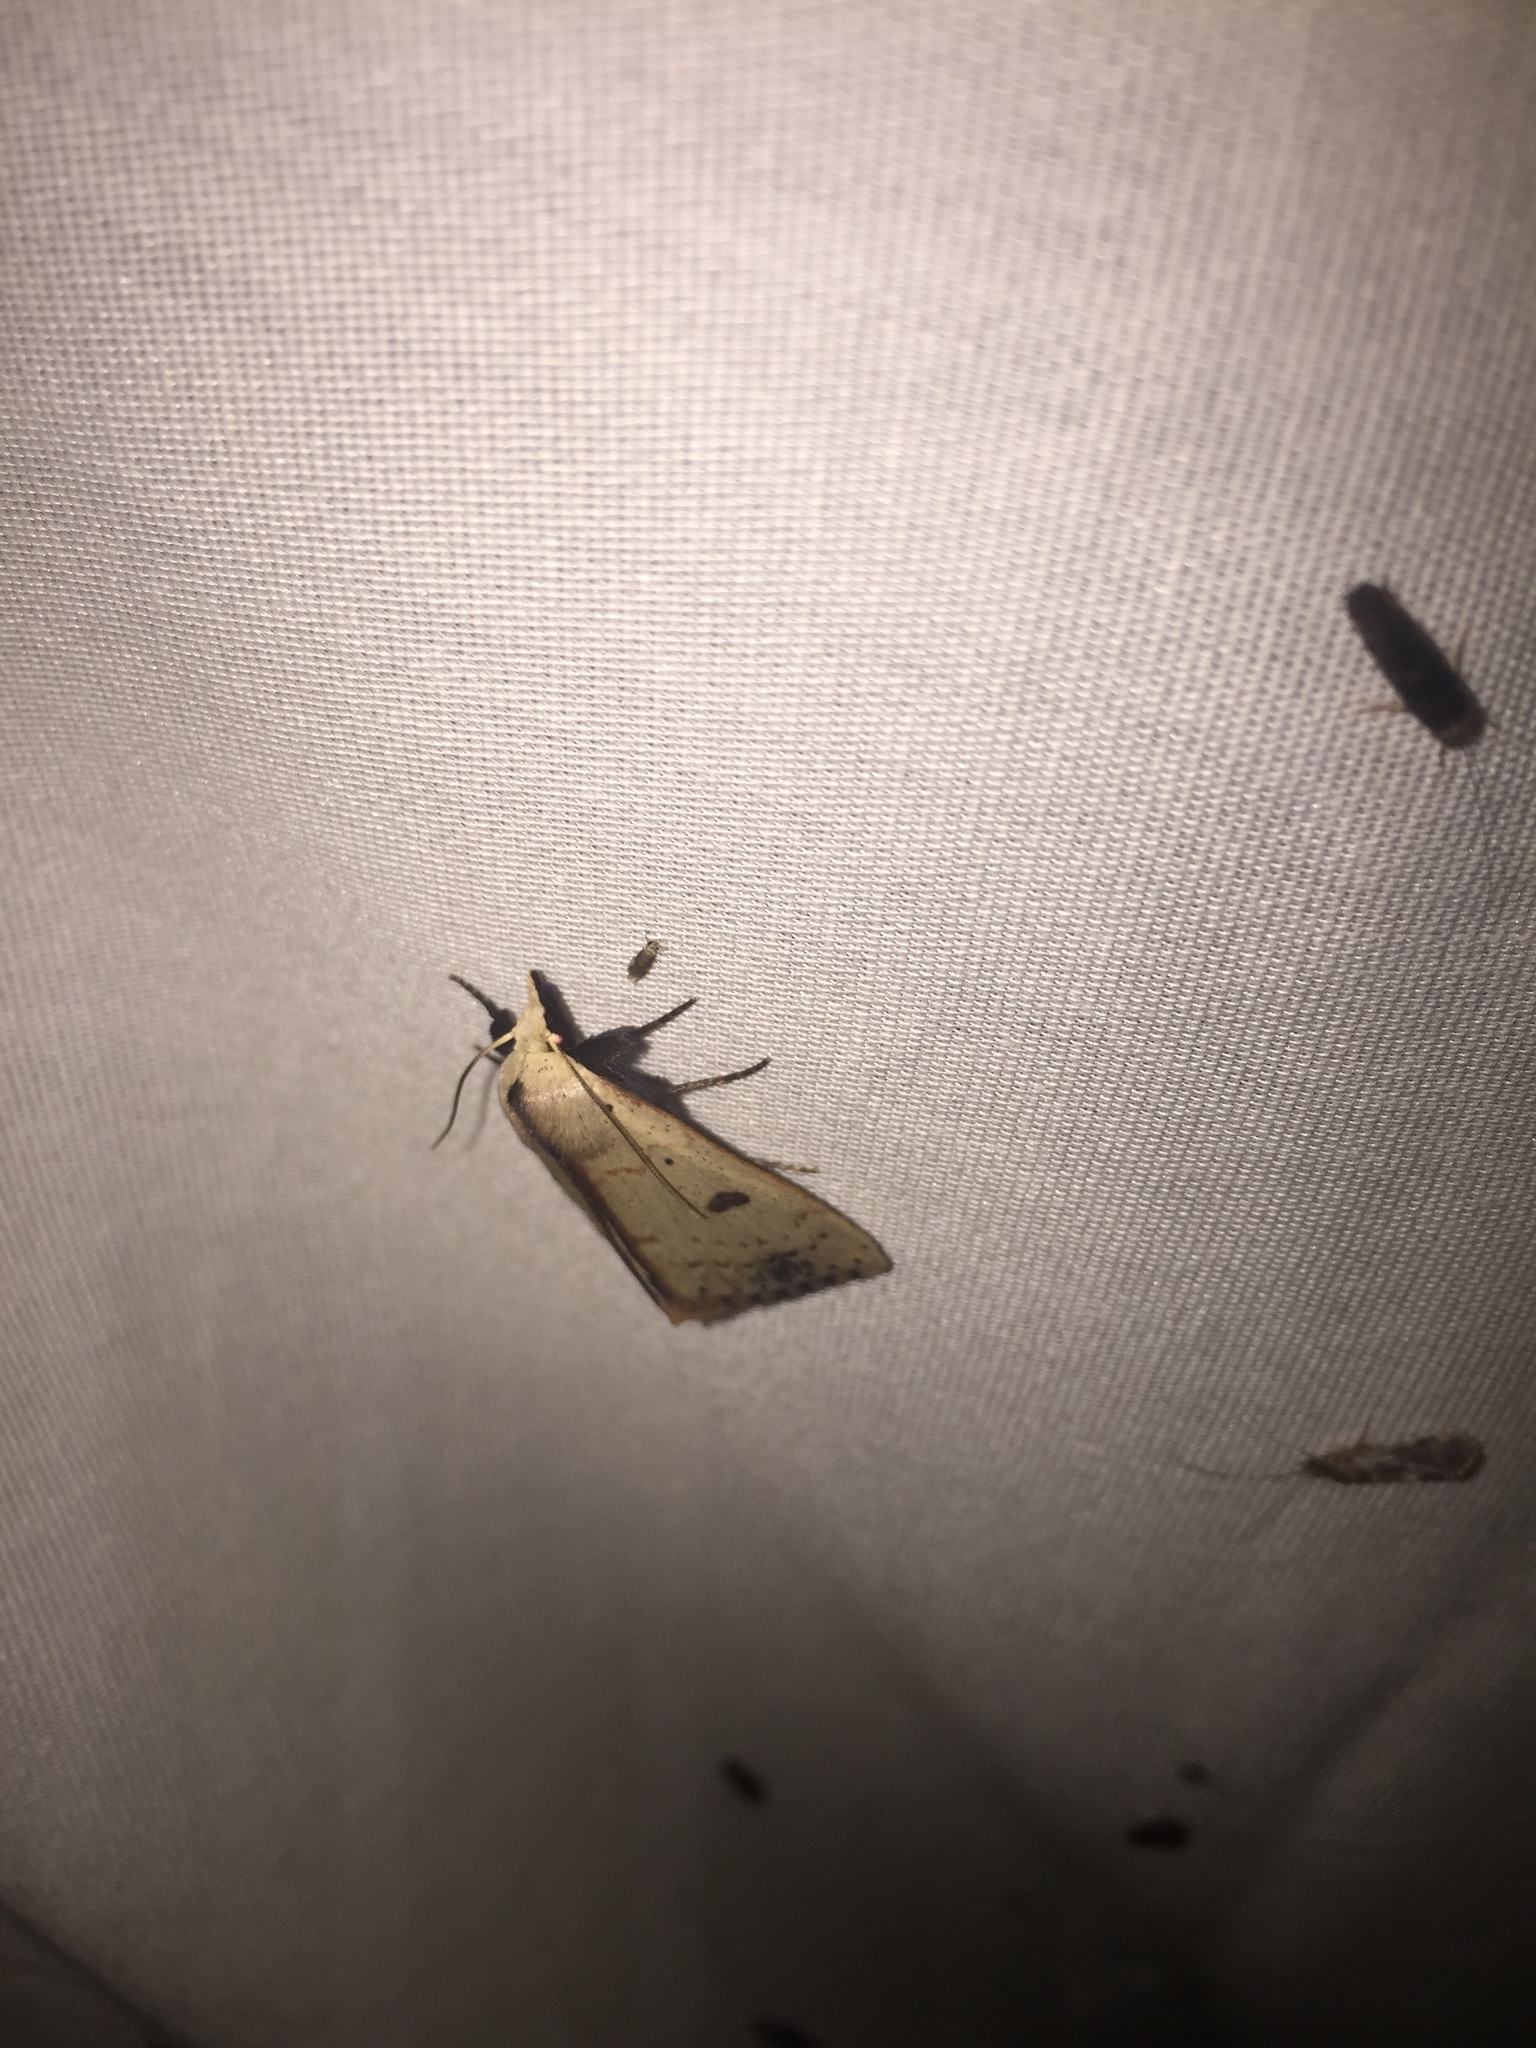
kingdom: Animalia
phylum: Arthropoda
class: Insecta
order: Lepidoptera
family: Erebidae
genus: Scolecocampa
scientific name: Scolecocampa liburna
